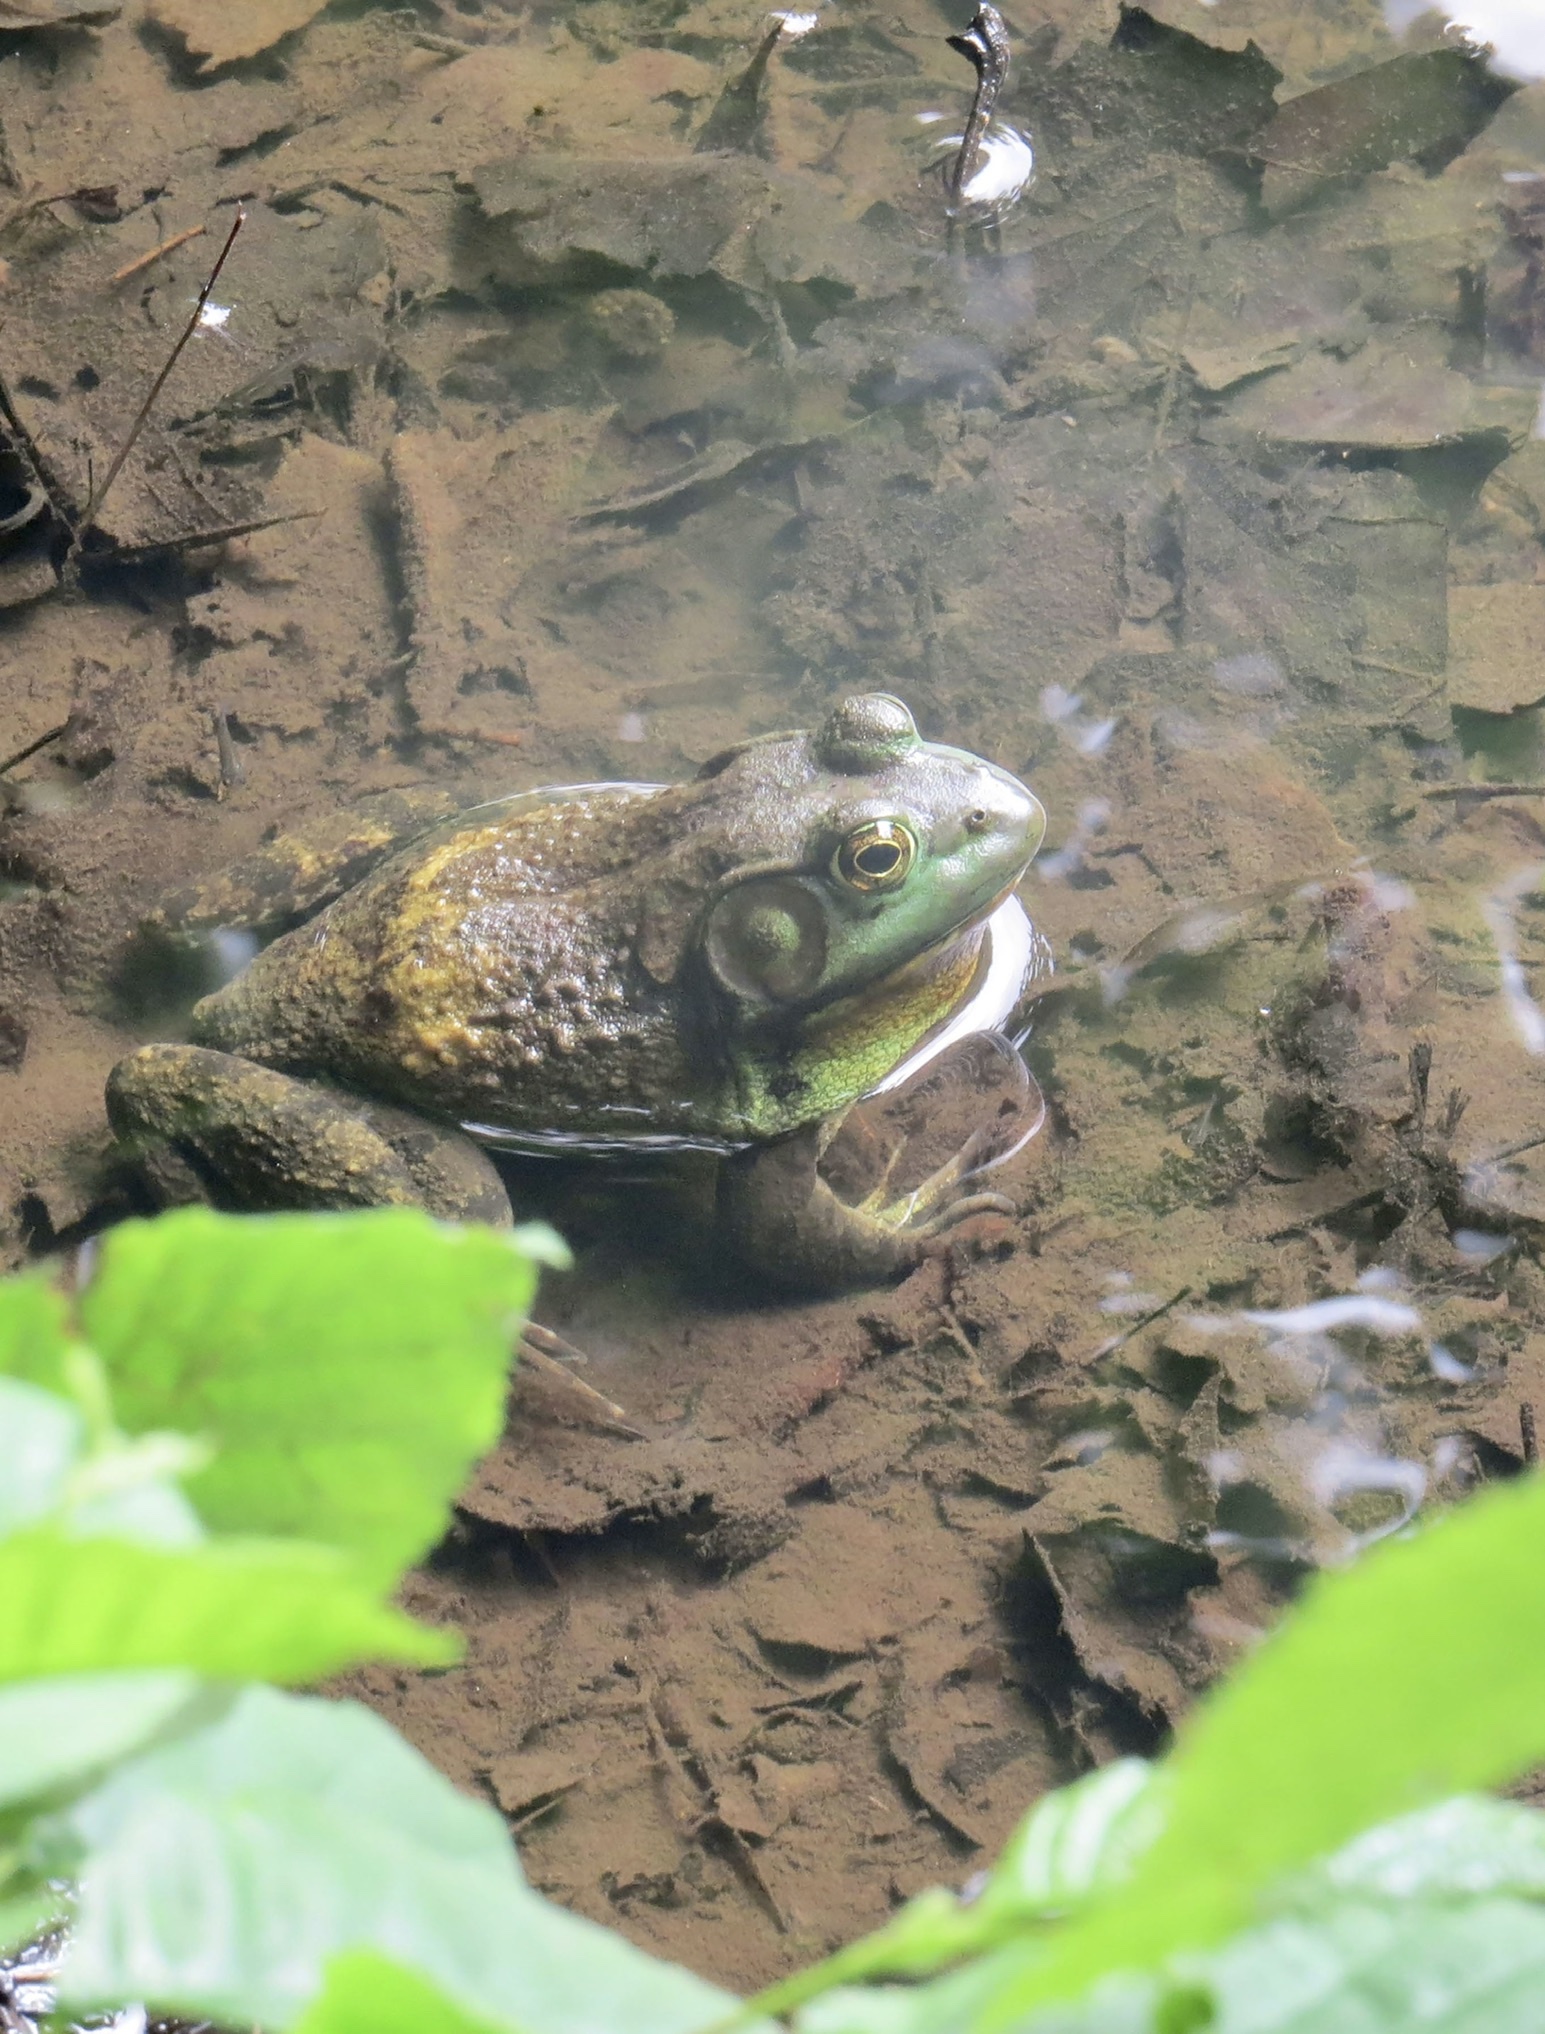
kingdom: Animalia
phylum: Chordata
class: Amphibia
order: Anura
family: Ranidae
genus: Lithobates
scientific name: Lithobates catesbeianus
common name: American bullfrog
